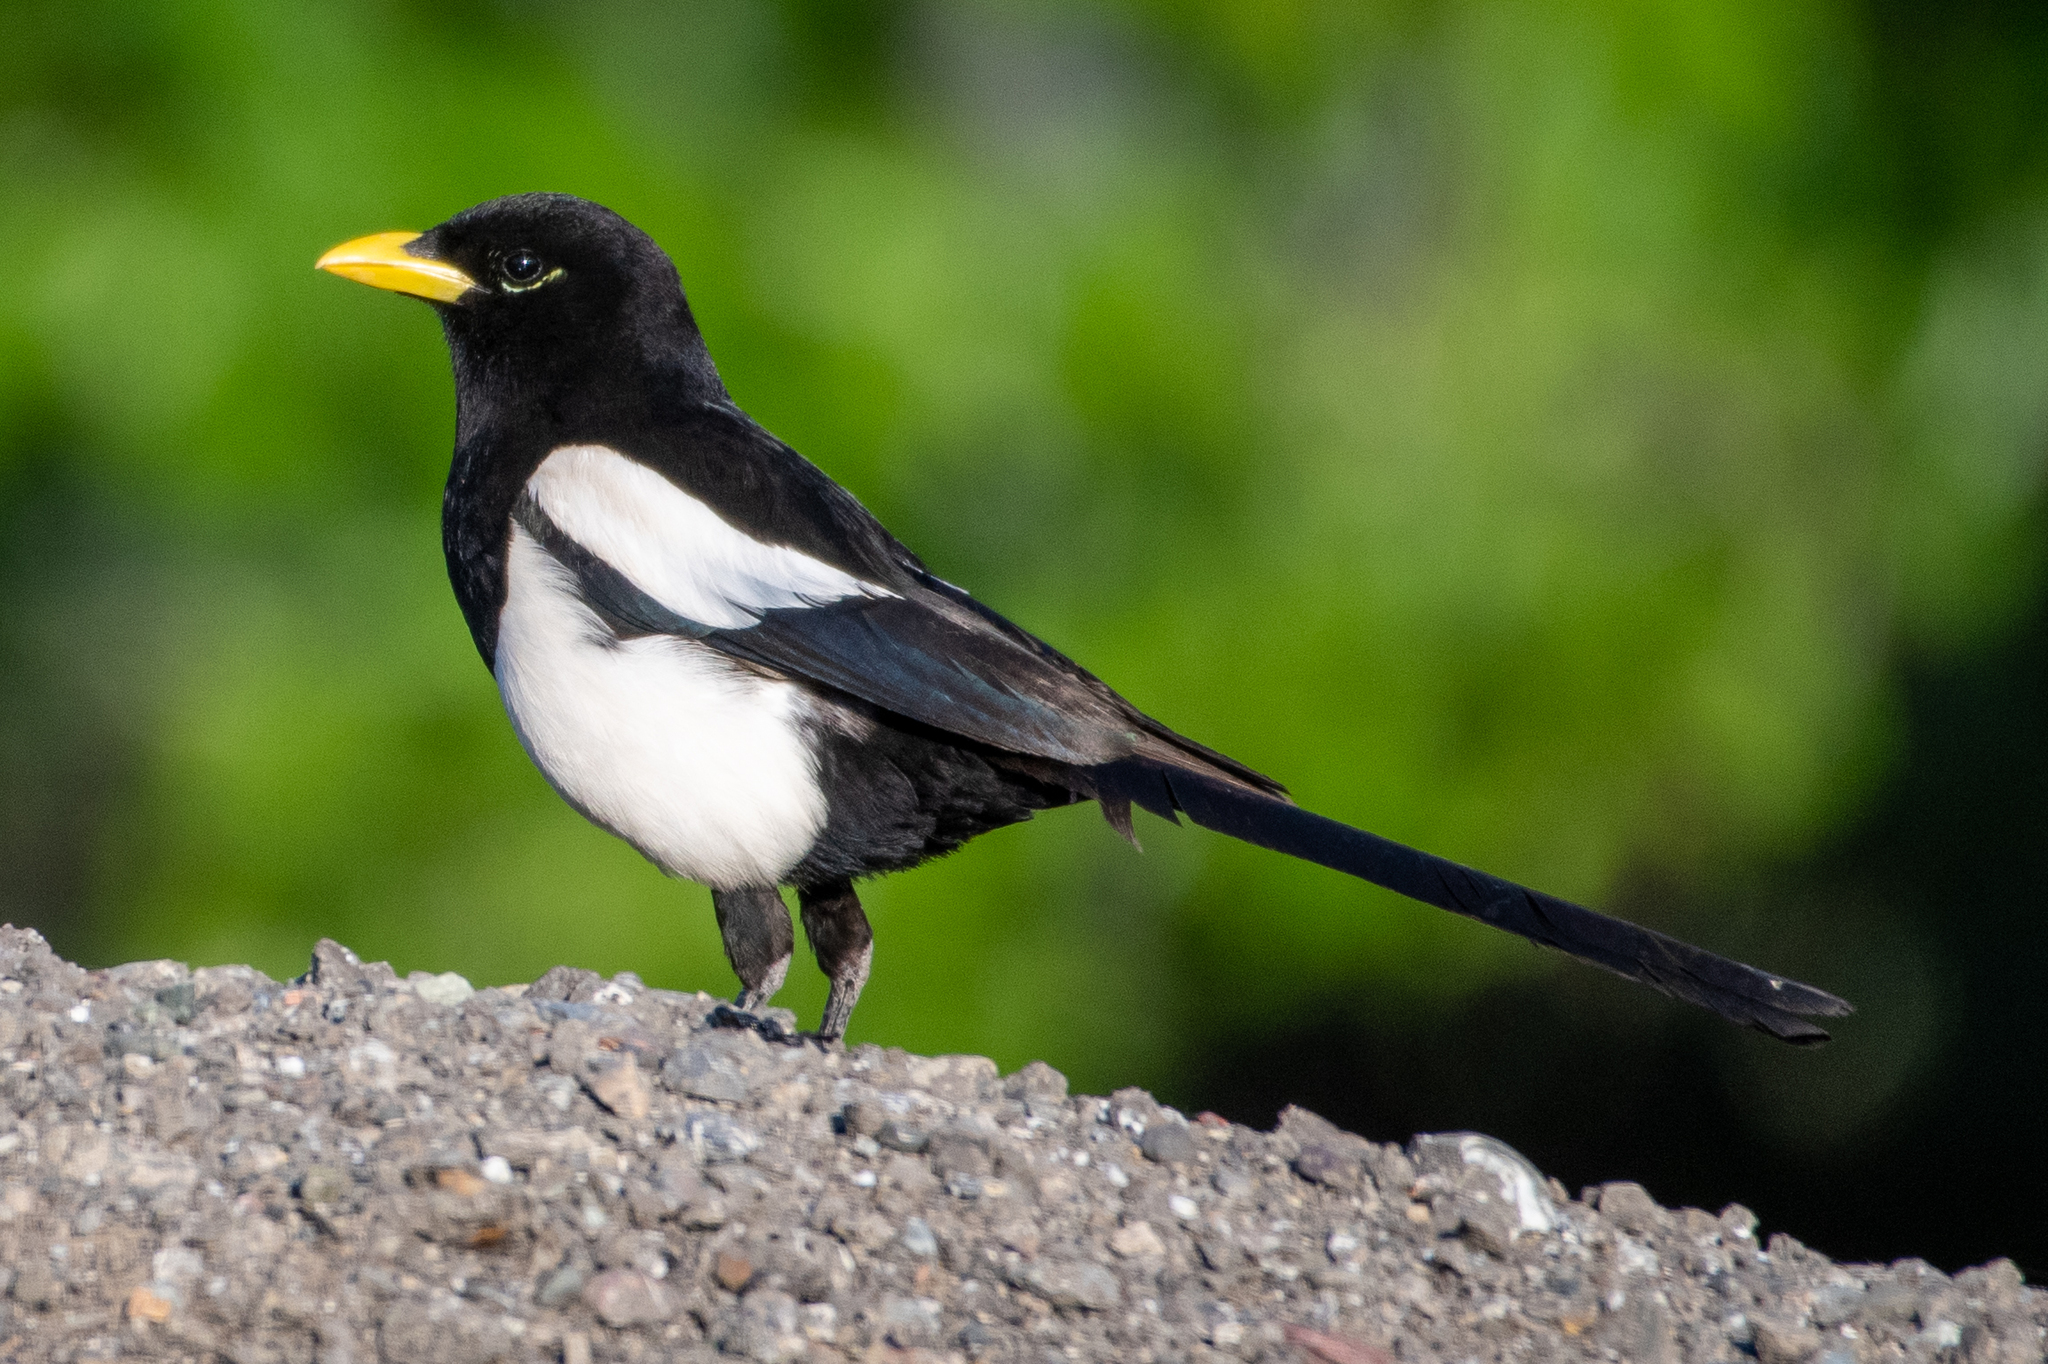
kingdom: Animalia
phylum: Chordata
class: Aves
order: Passeriformes
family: Corvidae
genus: Pica
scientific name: Pica nuttalli
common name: Yellow-billed magpie
